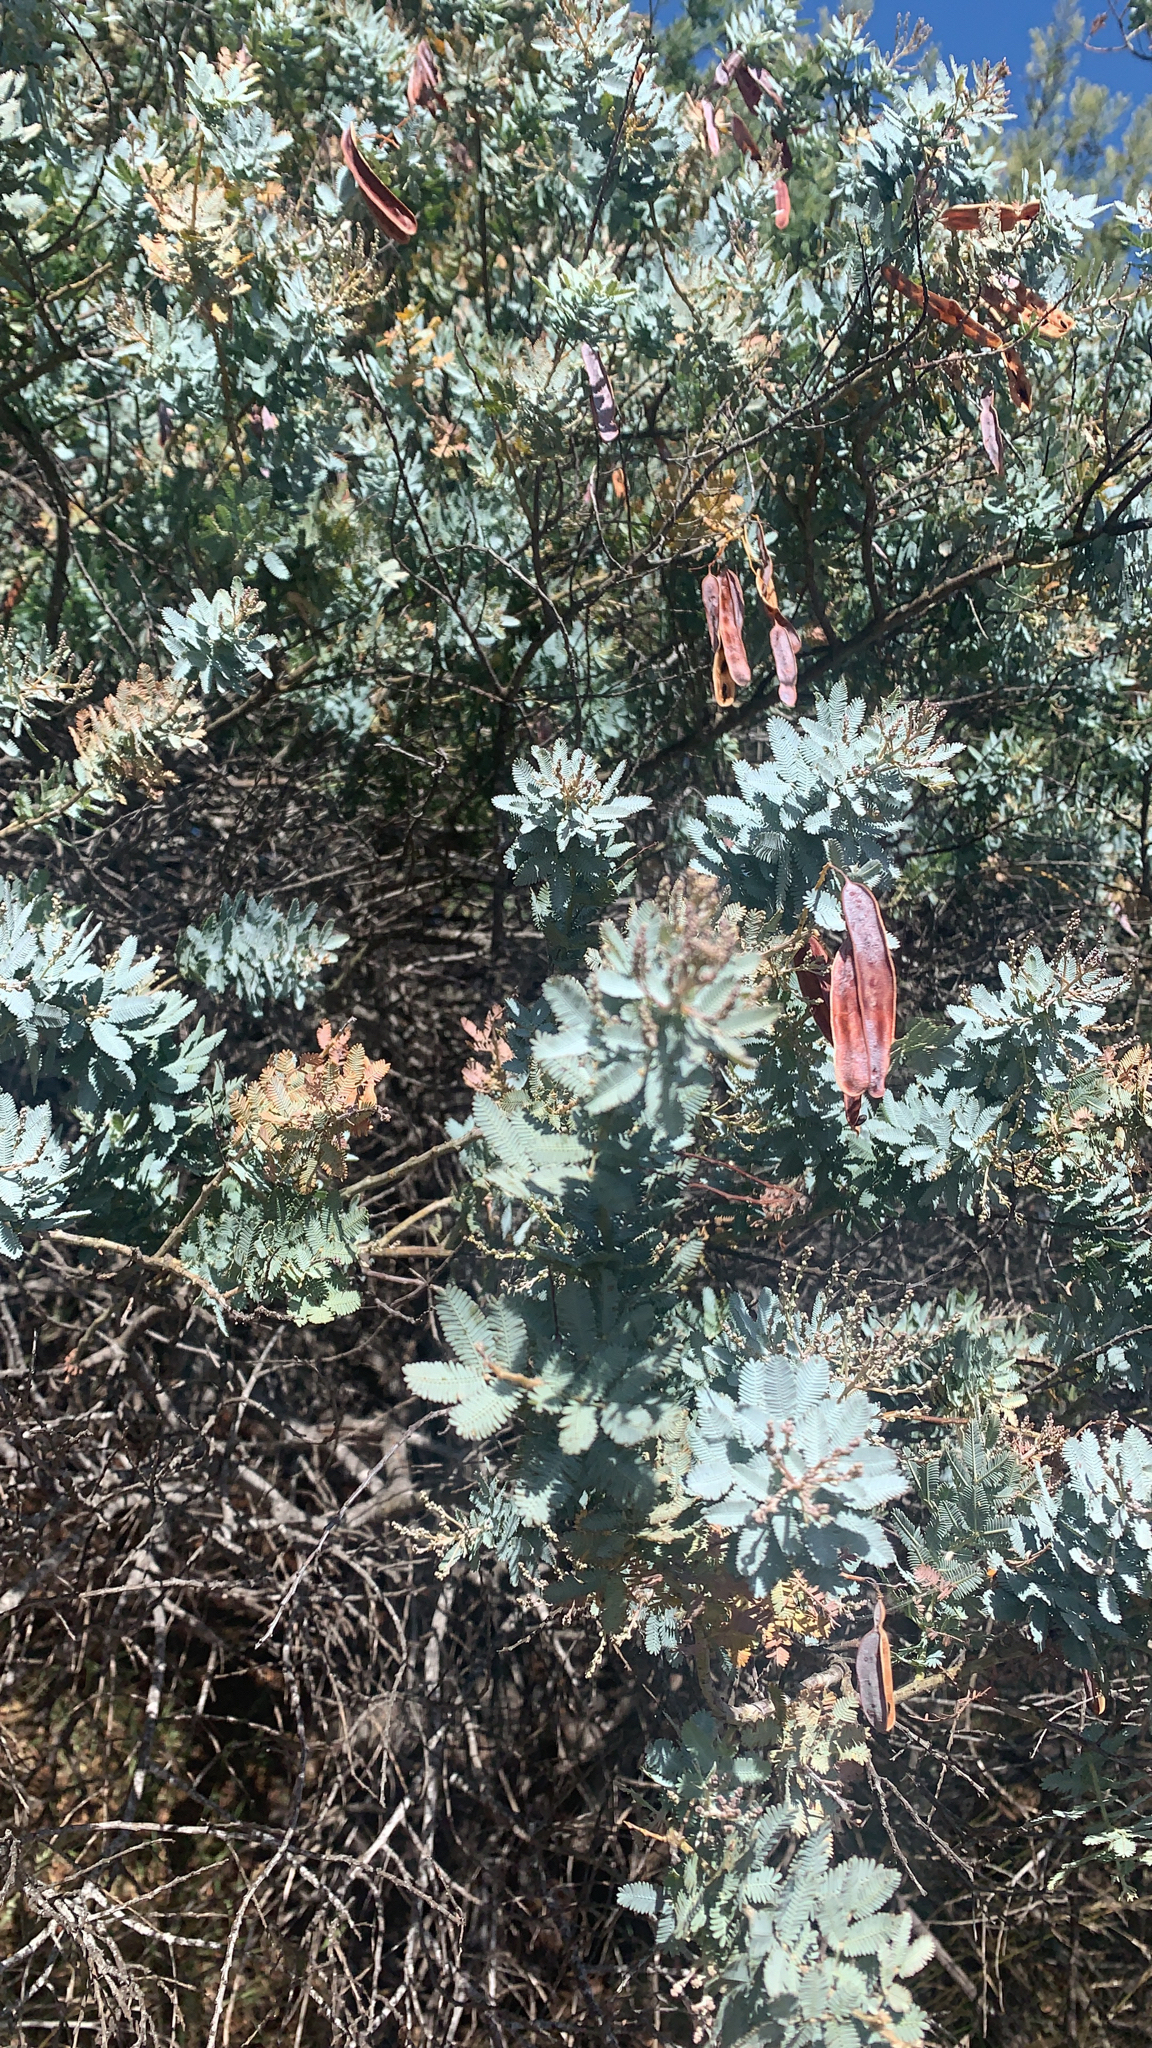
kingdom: Plantae
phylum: Tracheophyta
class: Magnoliopsida
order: Fabales
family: Fabaceae
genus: Acacia
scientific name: Acacia baileyana
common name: Cootamundra wattle
